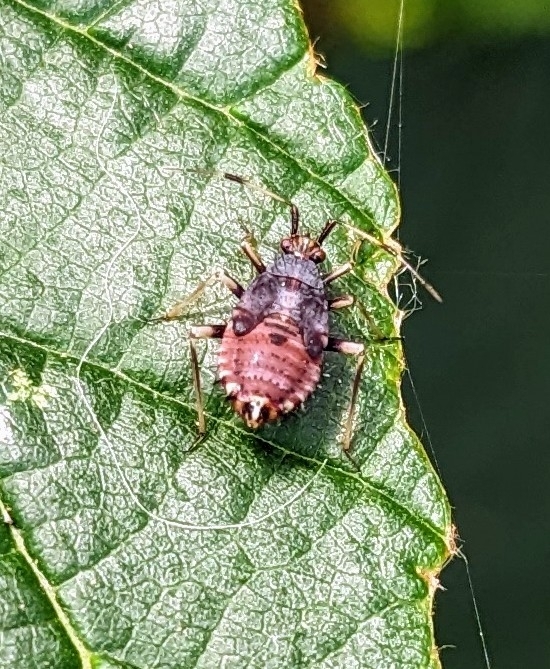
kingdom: Animalia
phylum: Arthropoda
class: Insecta
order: Hemiptera
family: Miridae
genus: Deraeocoris
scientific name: Deraeocoris ruber
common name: Plant bug
